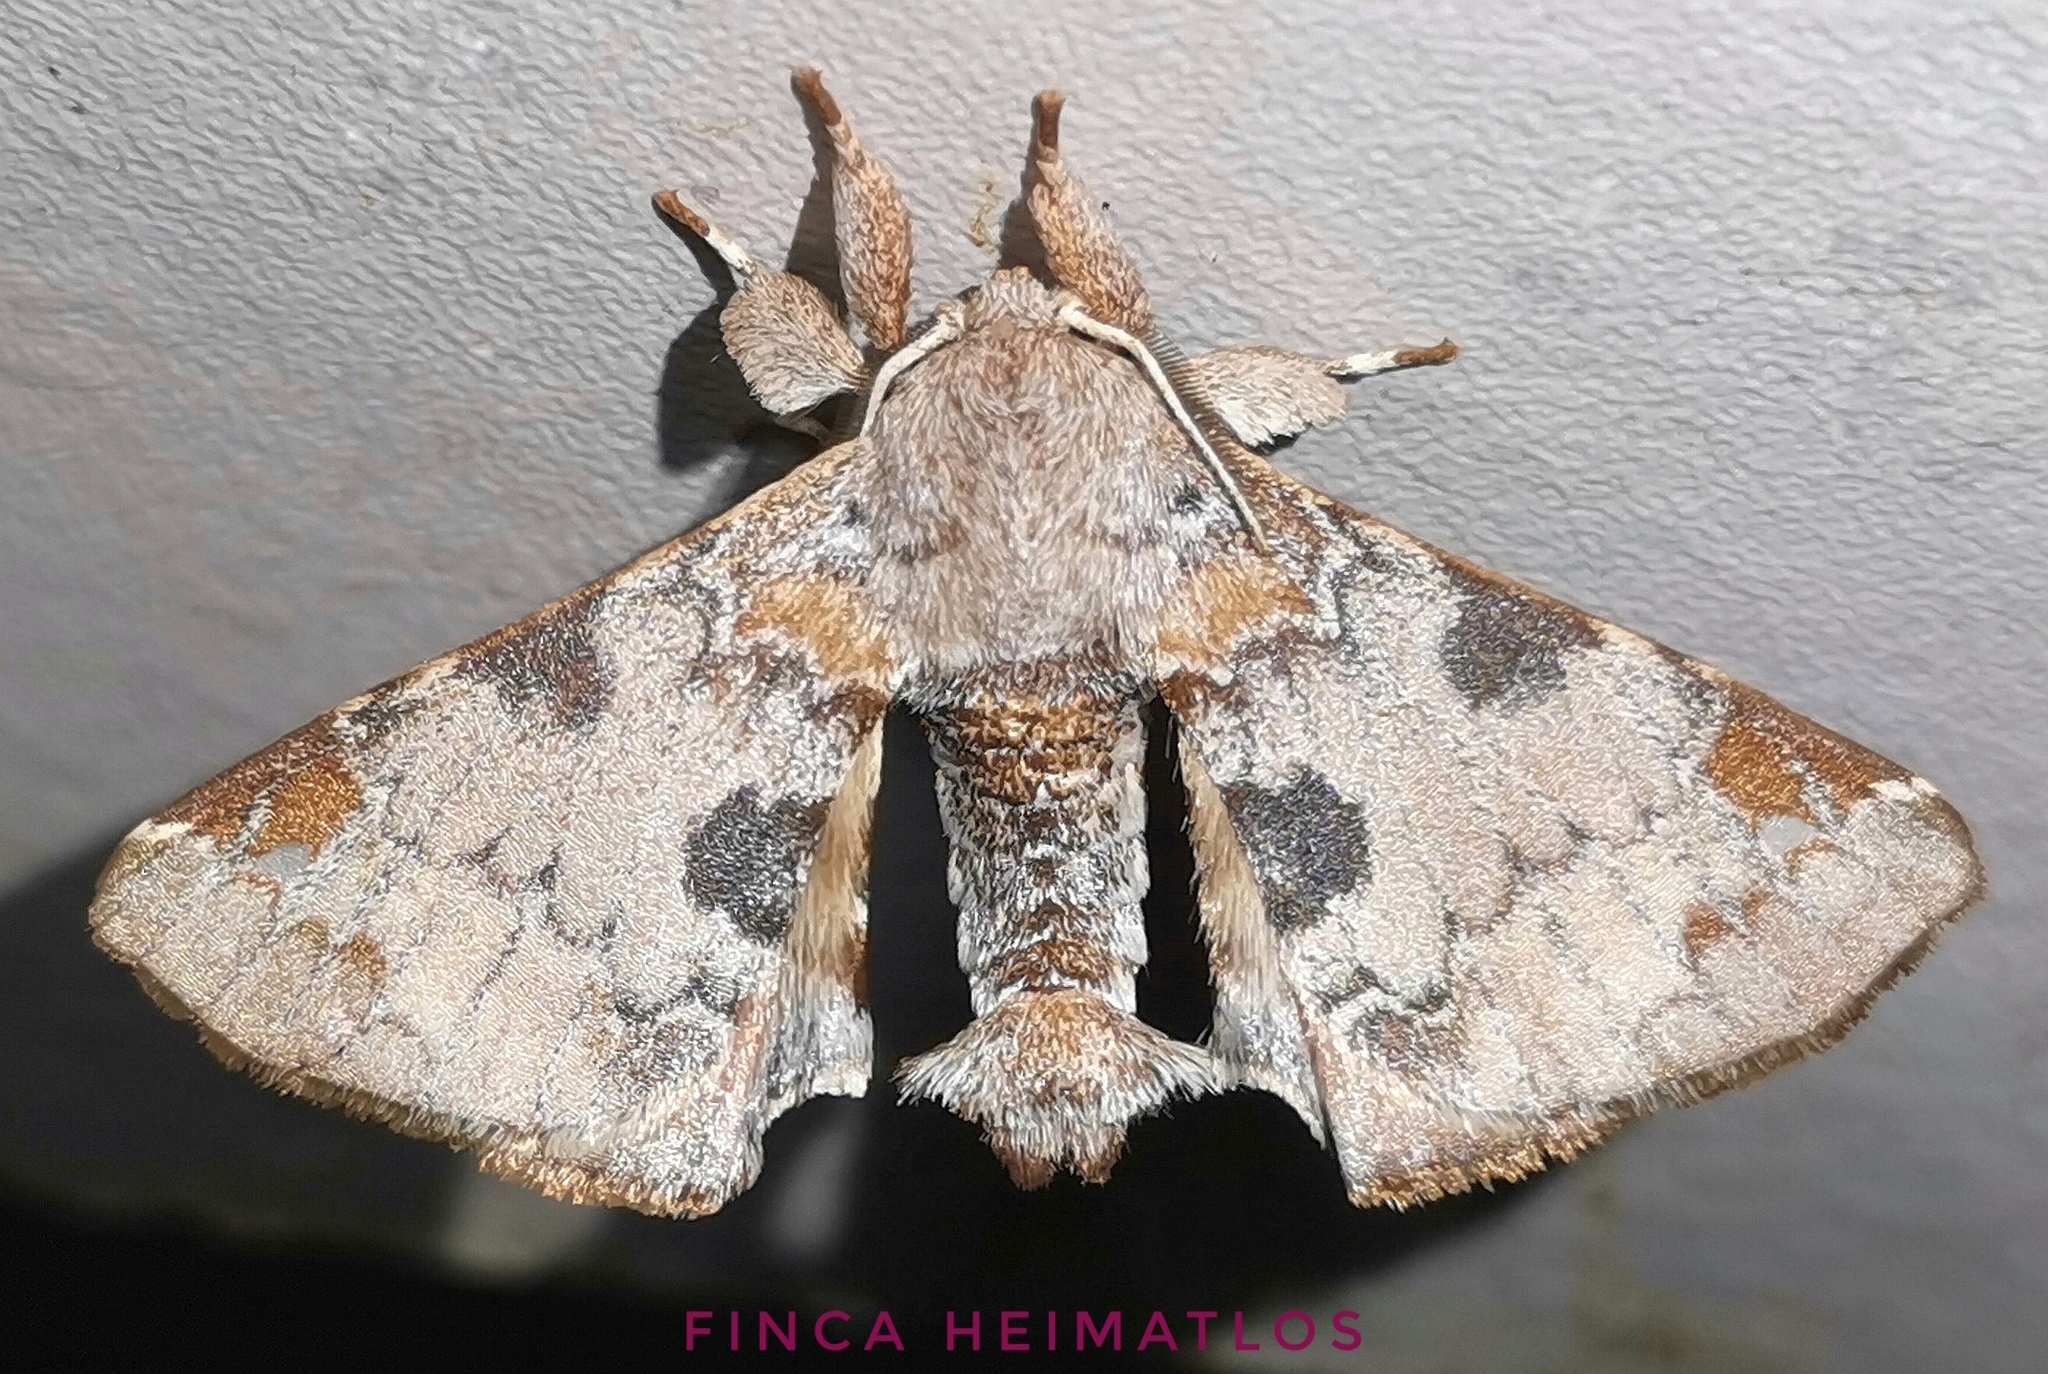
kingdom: Animalia
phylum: Arthropoda
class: Insecta
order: Lepidoptera
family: Apatelodidae
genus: Hygrochroa
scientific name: Hygrochroa nina
